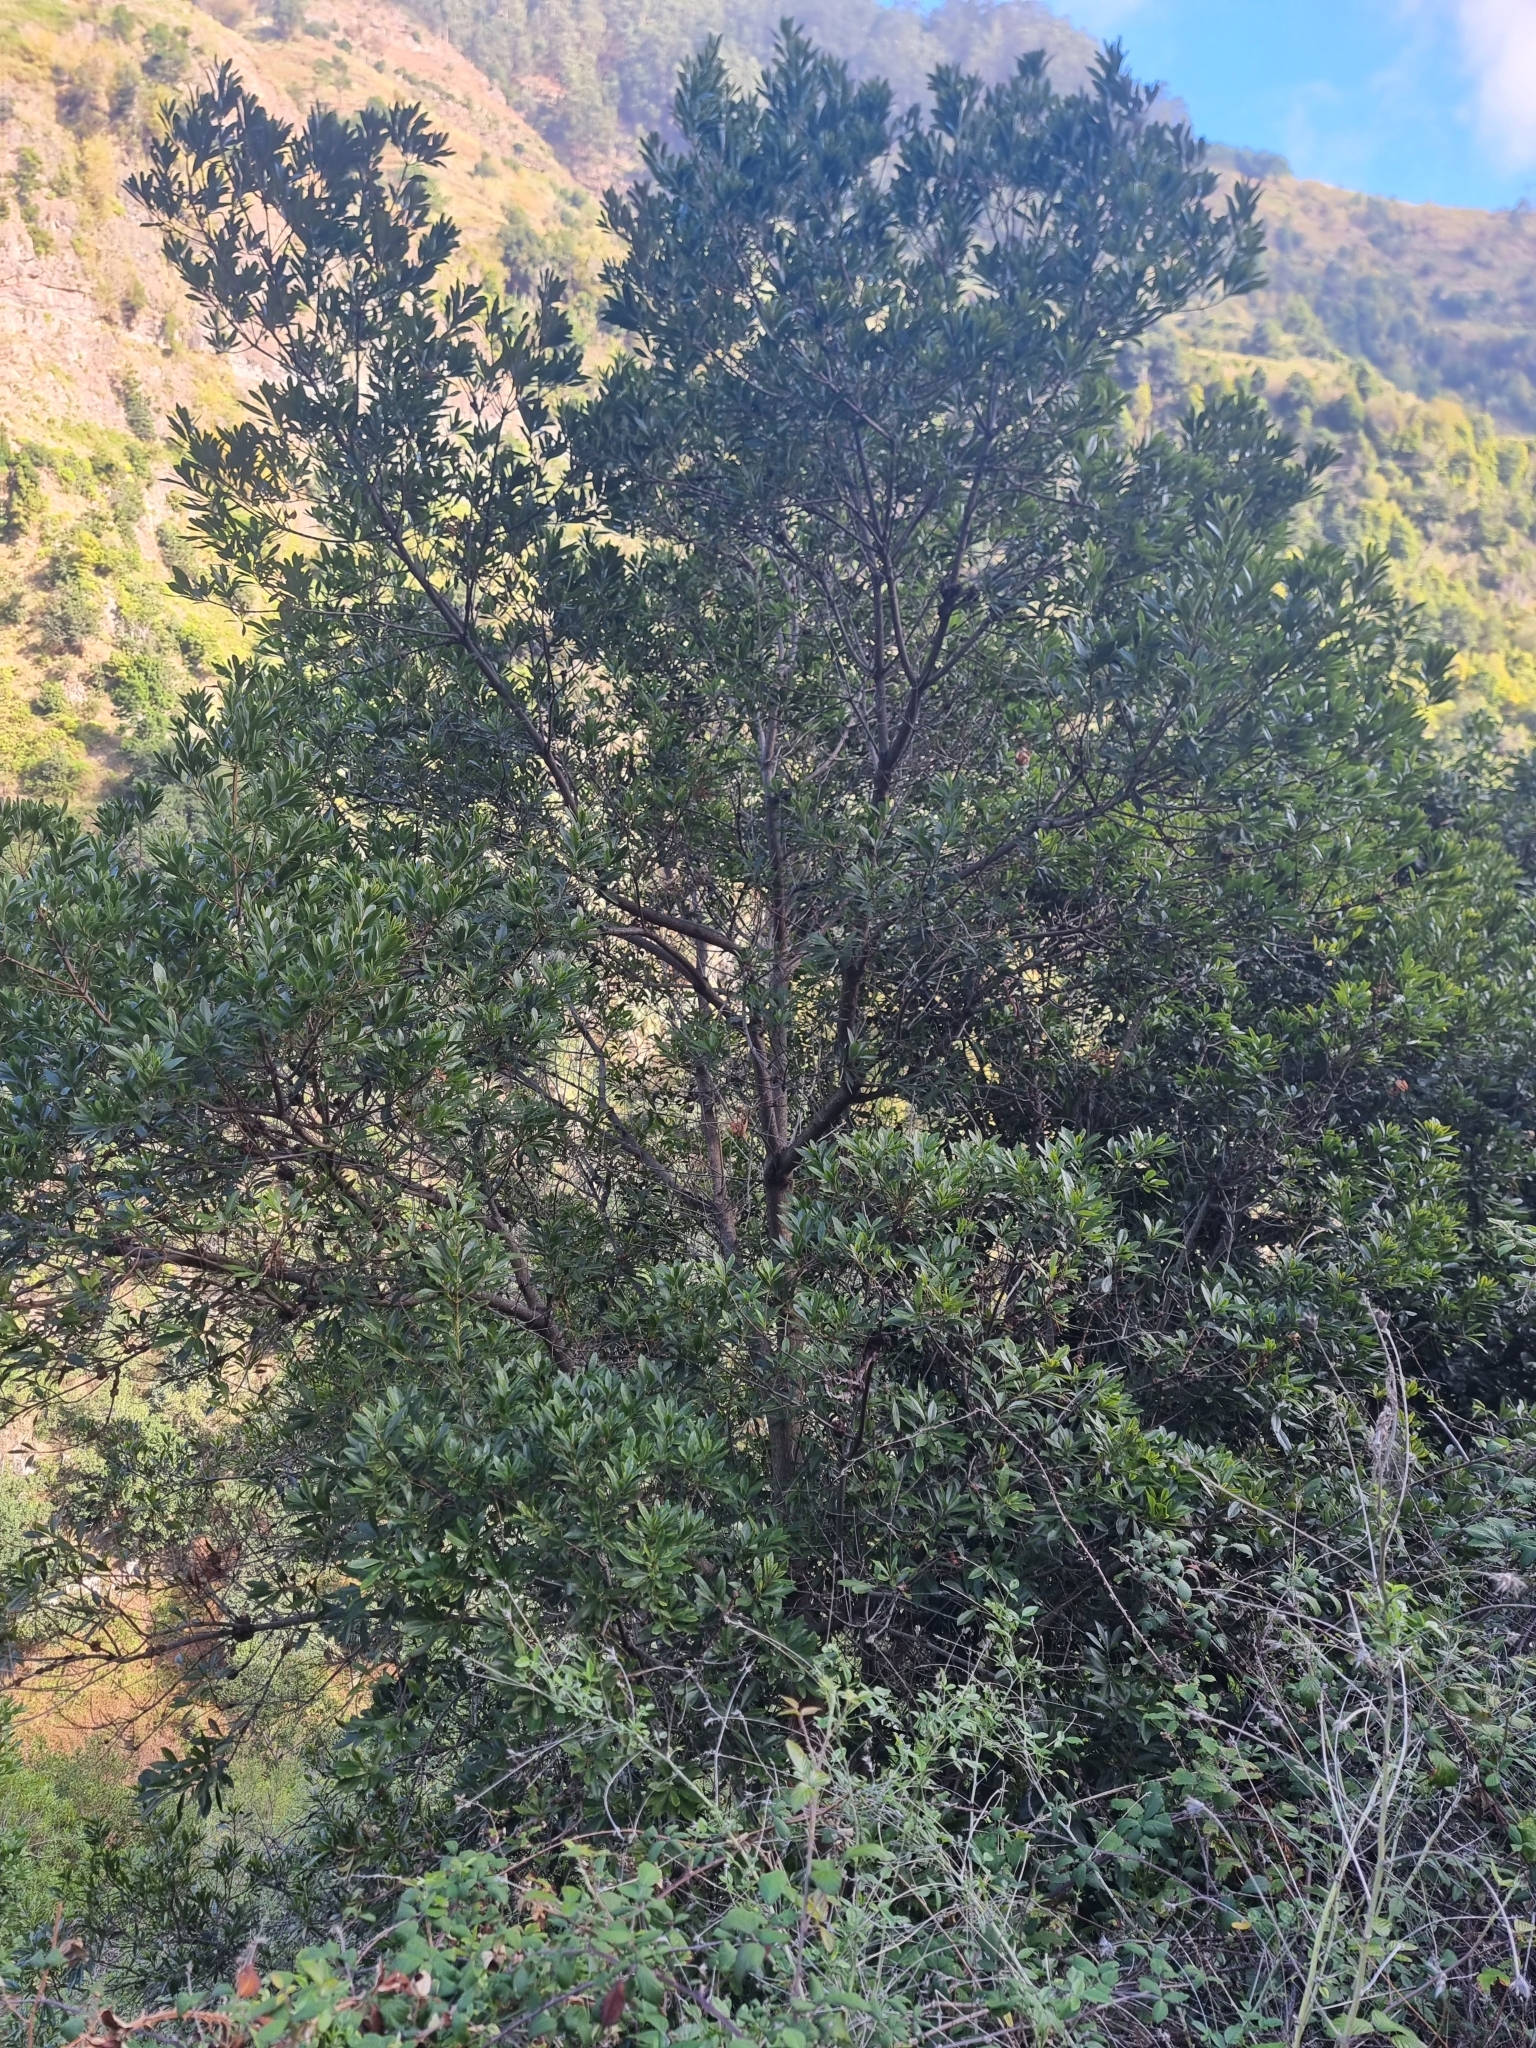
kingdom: Plantae
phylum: Tracheophyta
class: Magnoliopsida
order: Fagales
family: Myricaceae
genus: Morella
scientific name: Morella faya
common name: Firetree
